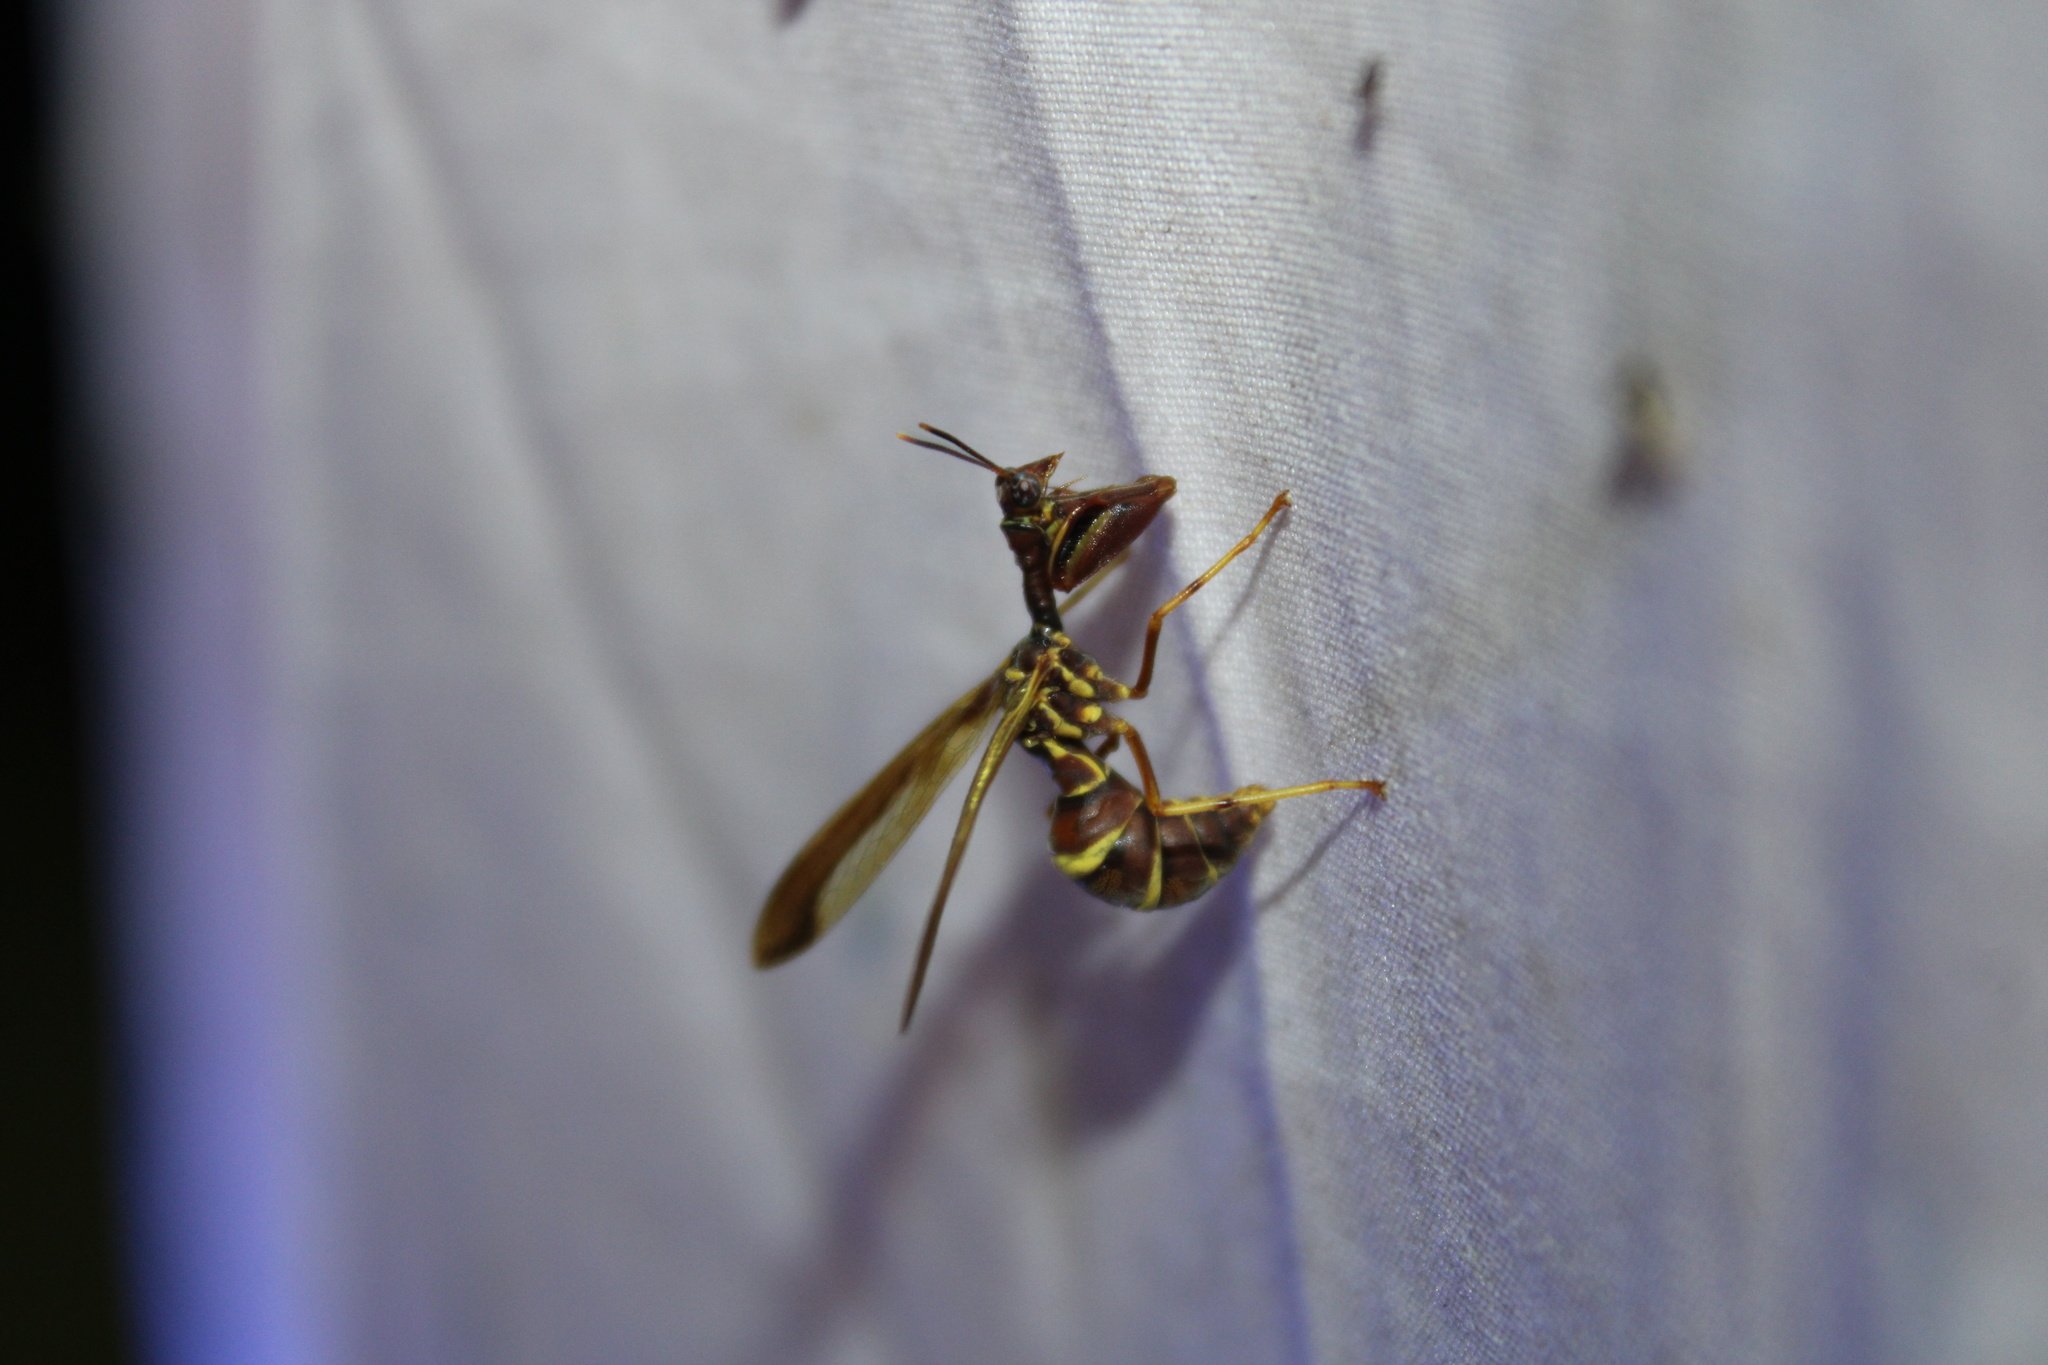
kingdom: Animalia
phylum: Arthropoda
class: Insecta
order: Neuroptera
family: Mantispidae
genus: Climaciella
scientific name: Climaciella brunnea
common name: Brown wasp mantidfly
